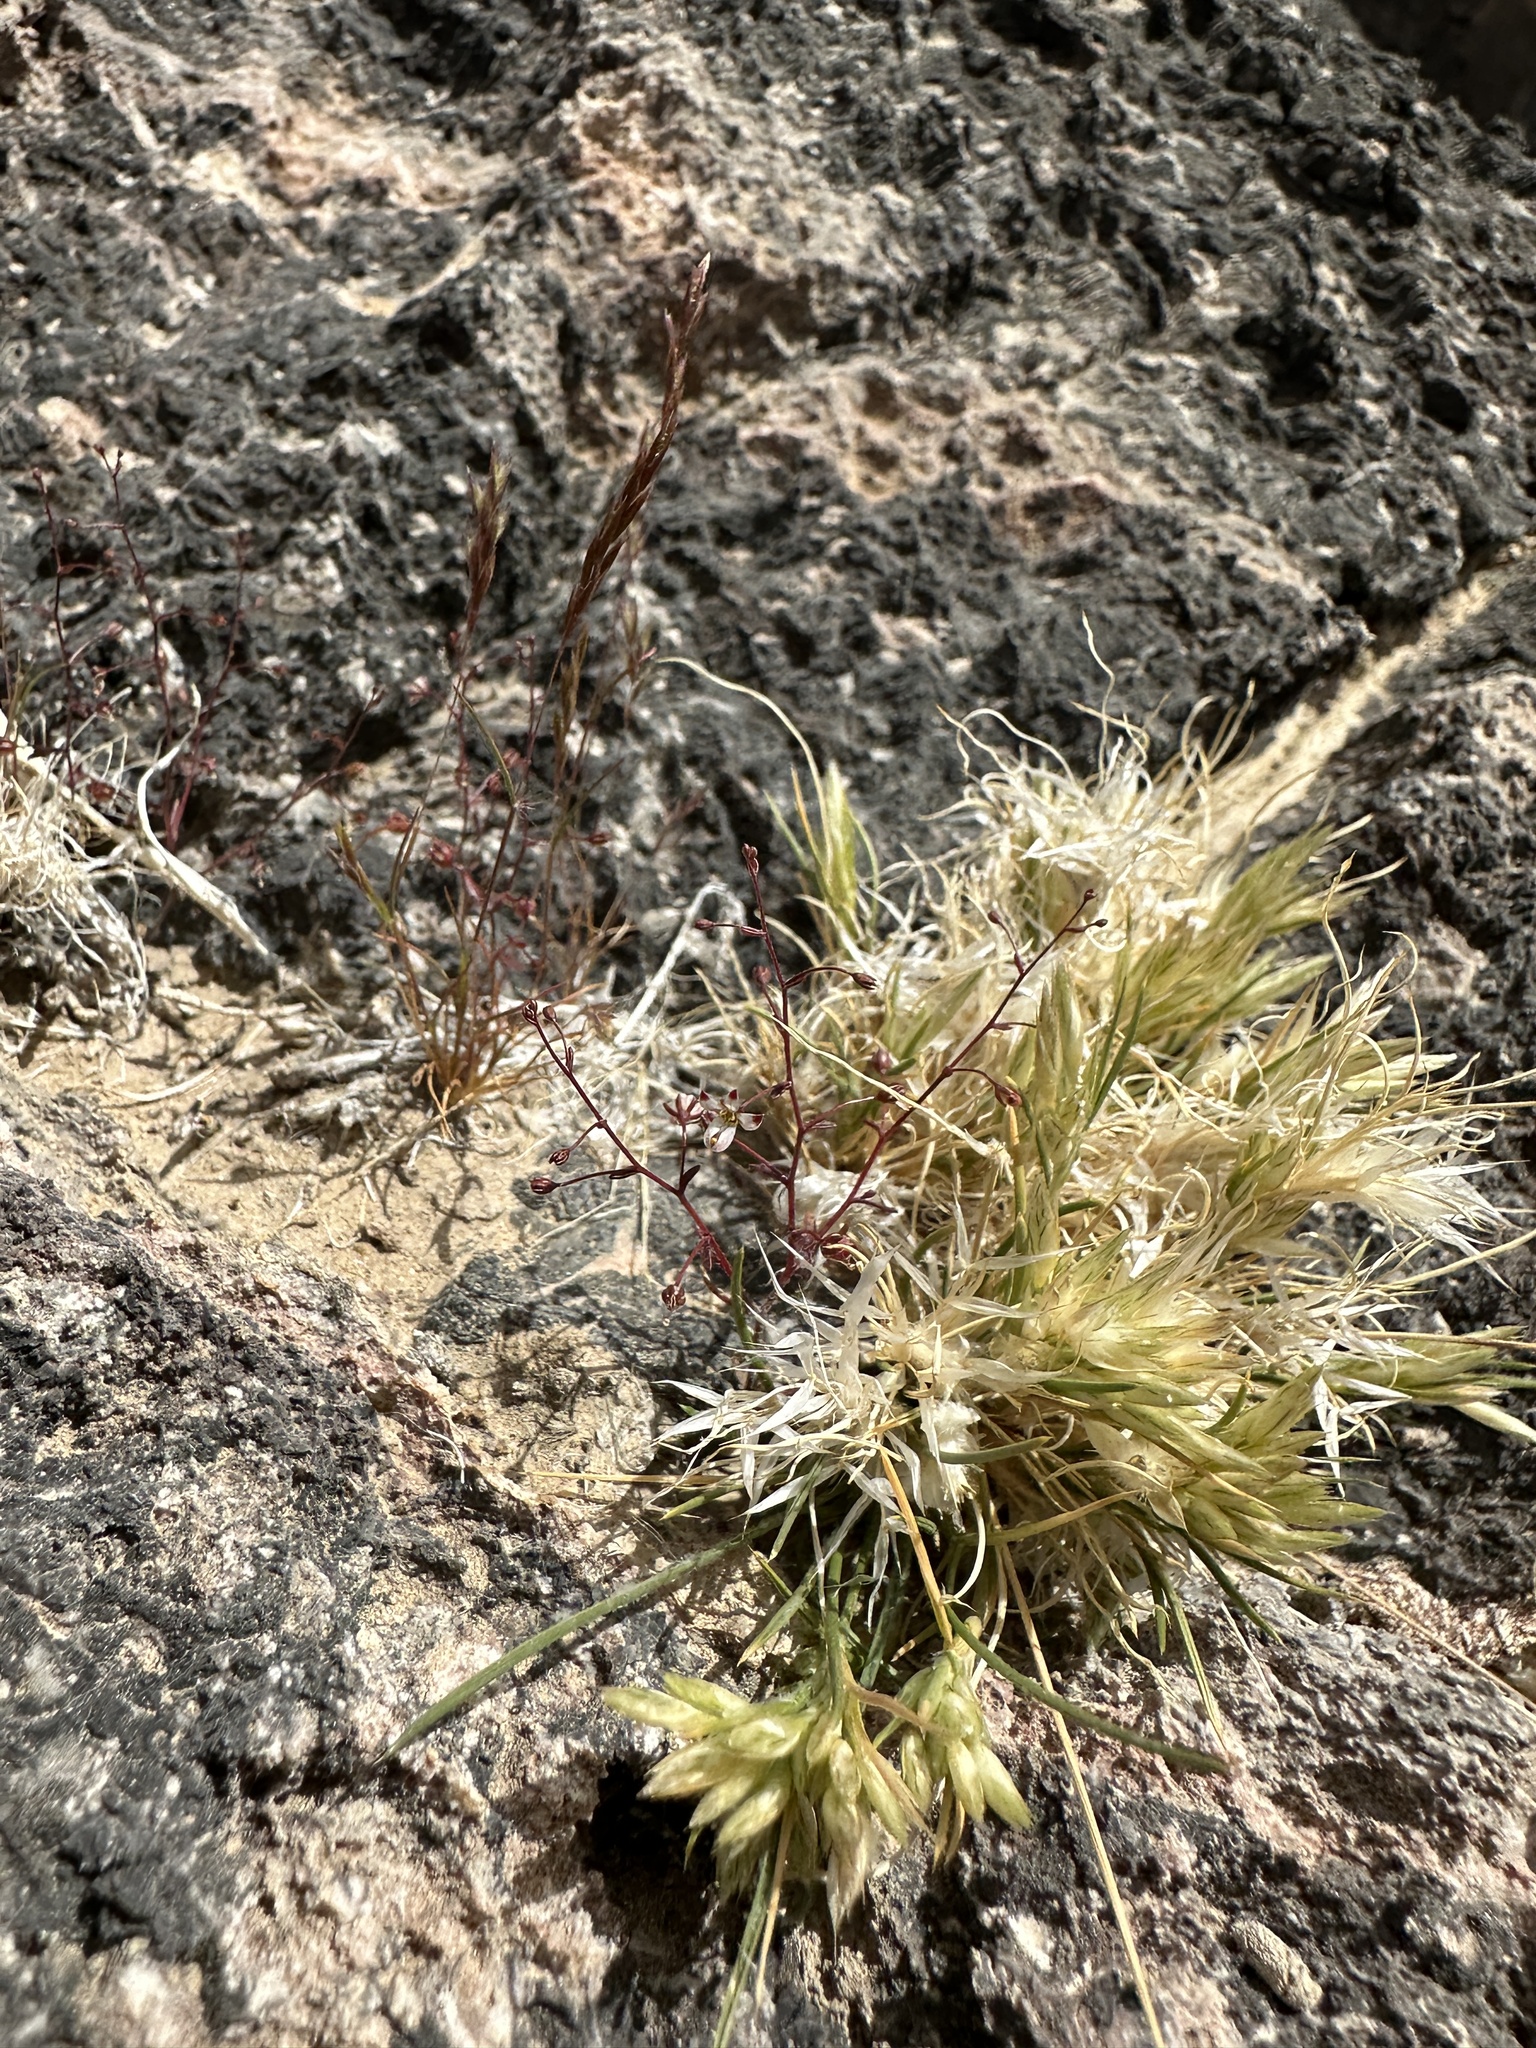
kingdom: Plantae
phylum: Tracheophyta
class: Magnoliopsida
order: Asterales
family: Campanulaceae
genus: Nemacladus
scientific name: Nemacladus orientalis
